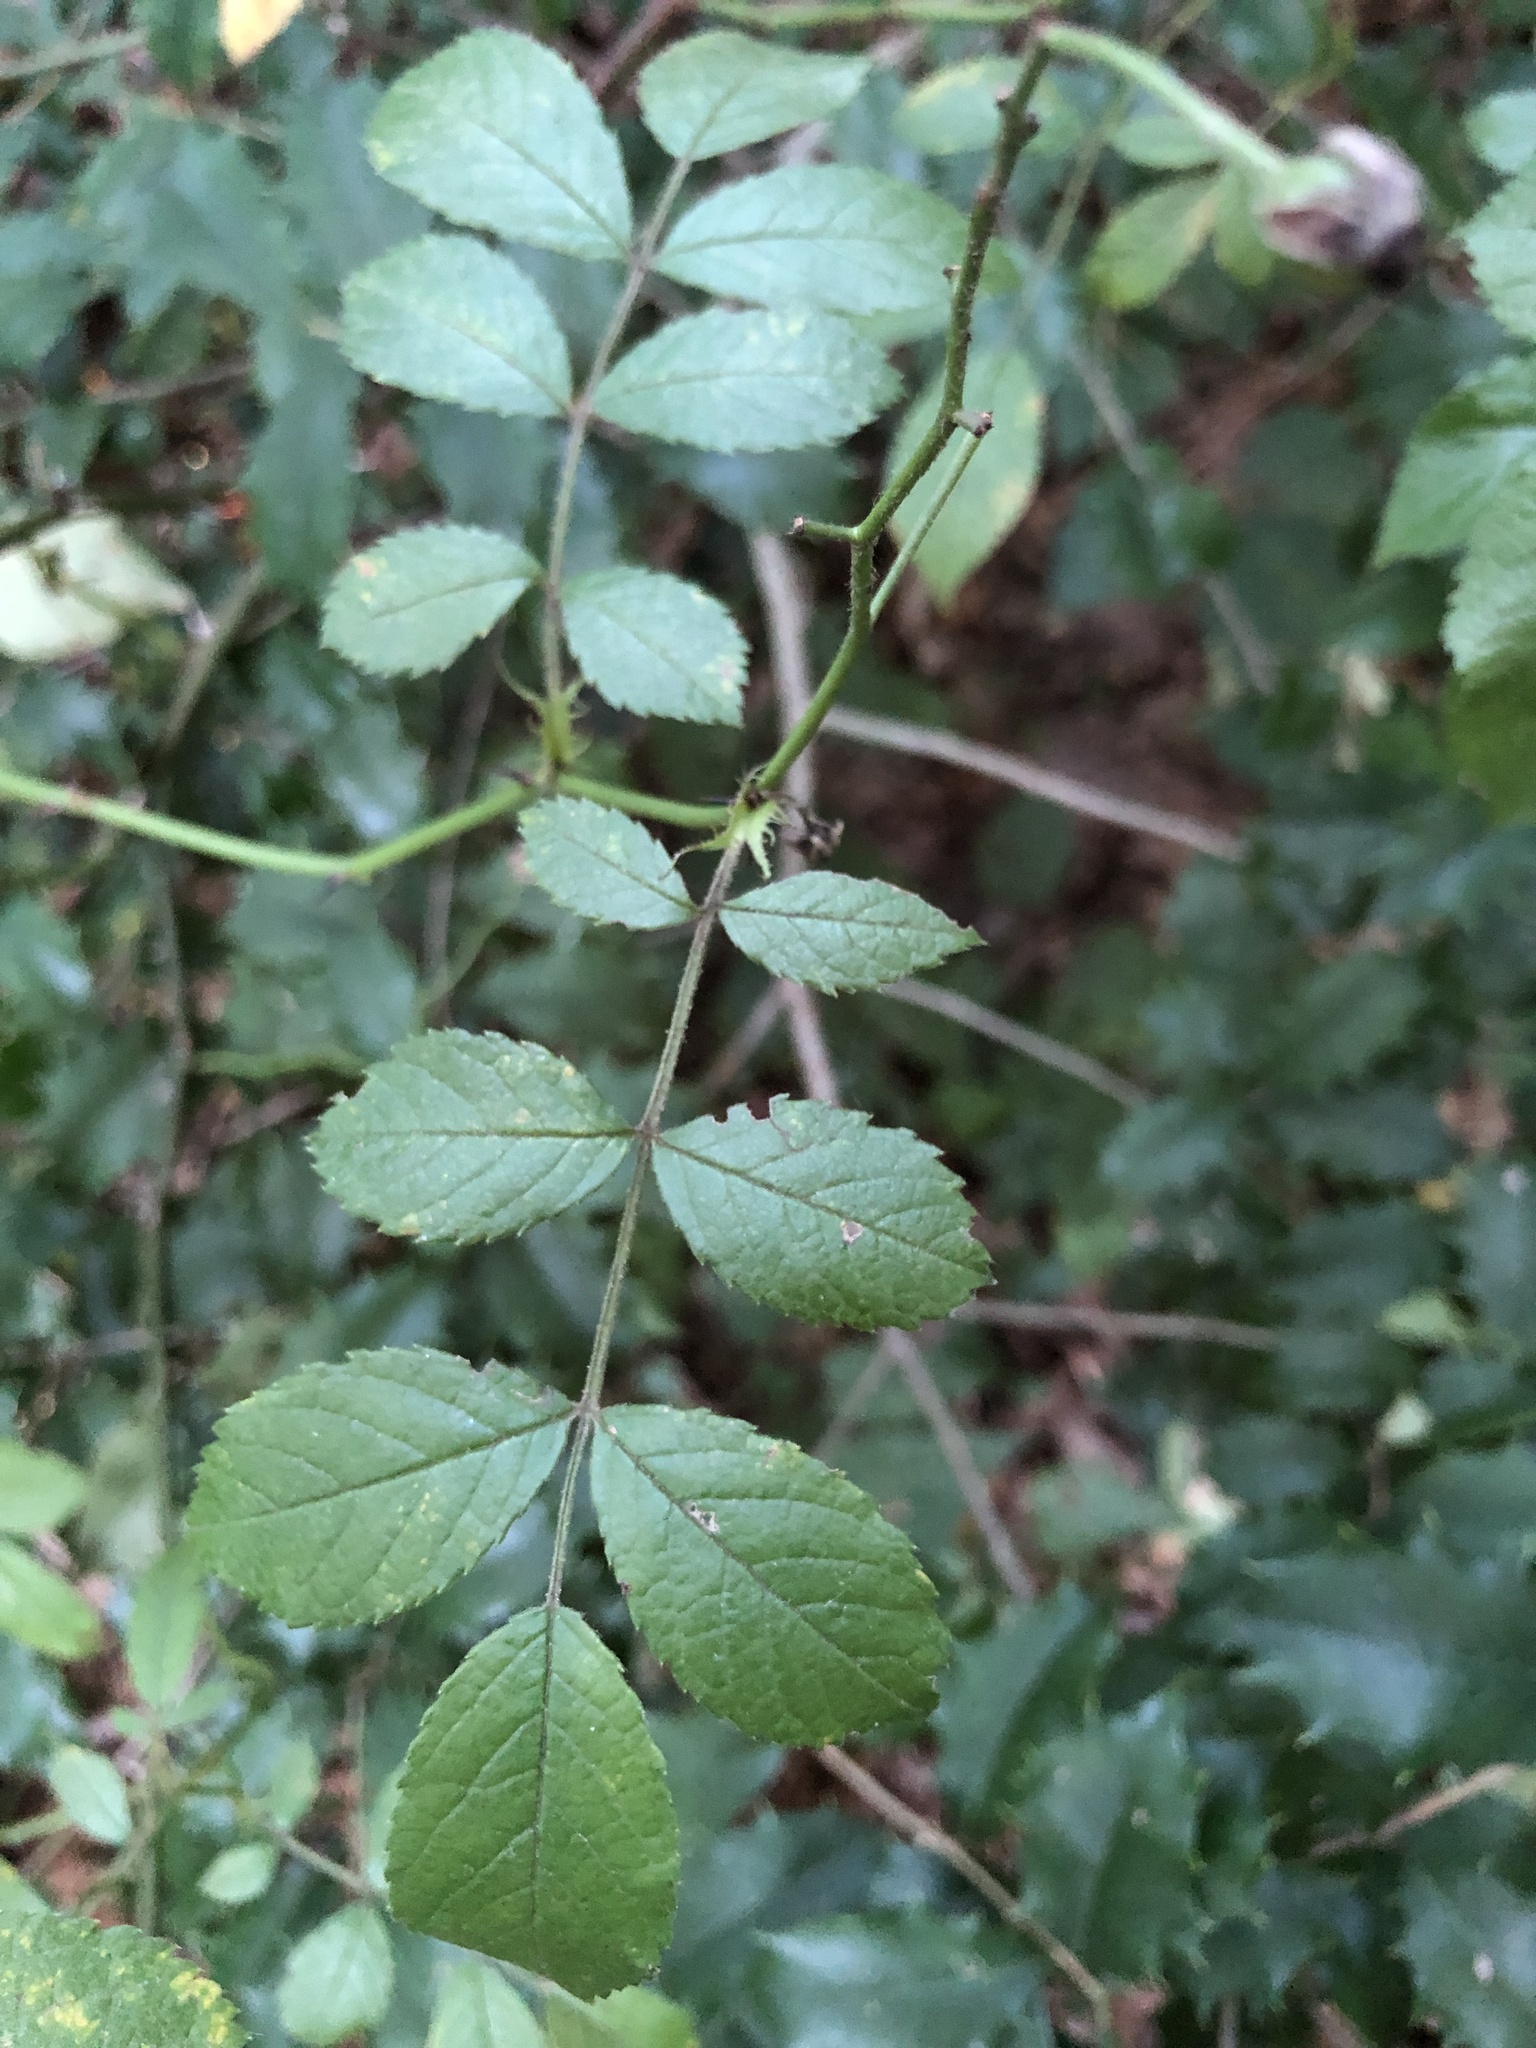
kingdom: Plantae
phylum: Tracheophyta
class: Magnoliopsida
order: Rosales
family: Rosaceae
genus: Rosa
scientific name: Rosa multiflora
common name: Multiflora rose
